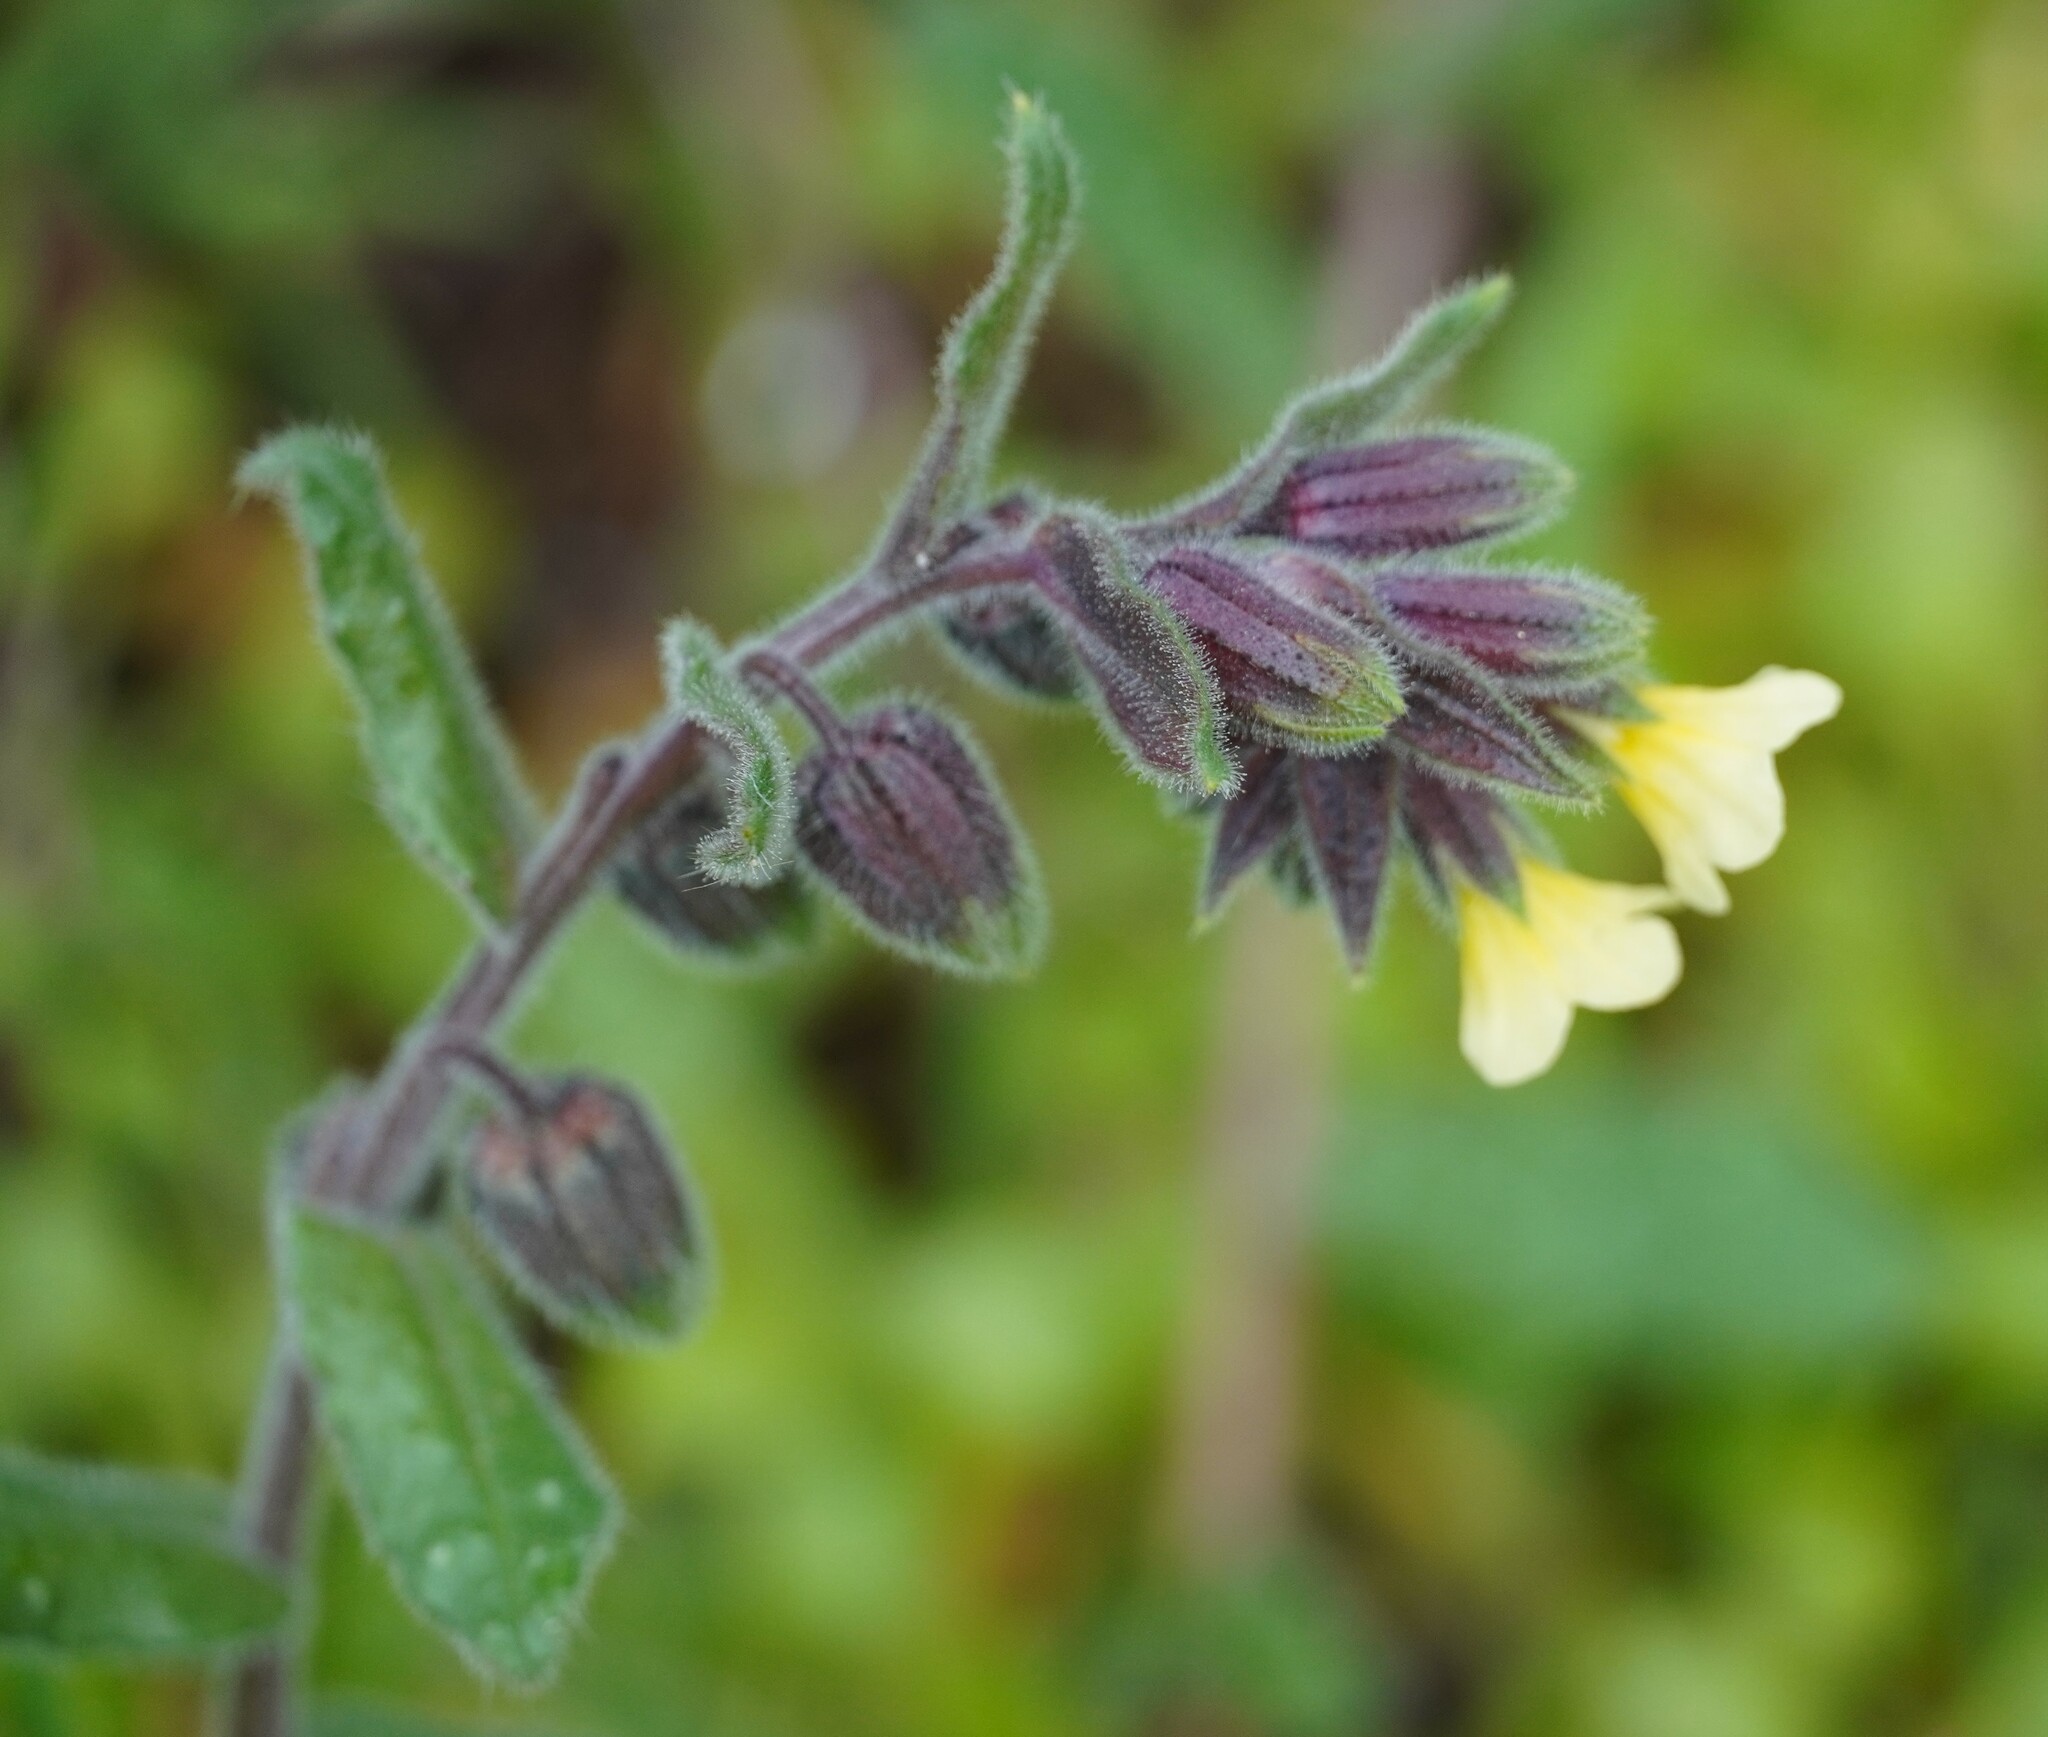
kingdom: Plantae
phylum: Tracheophyta
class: Magnoliopsida
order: Boraginales
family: Boraginaceae
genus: Nonea
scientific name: Nonea lutea
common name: Yellow nonea
